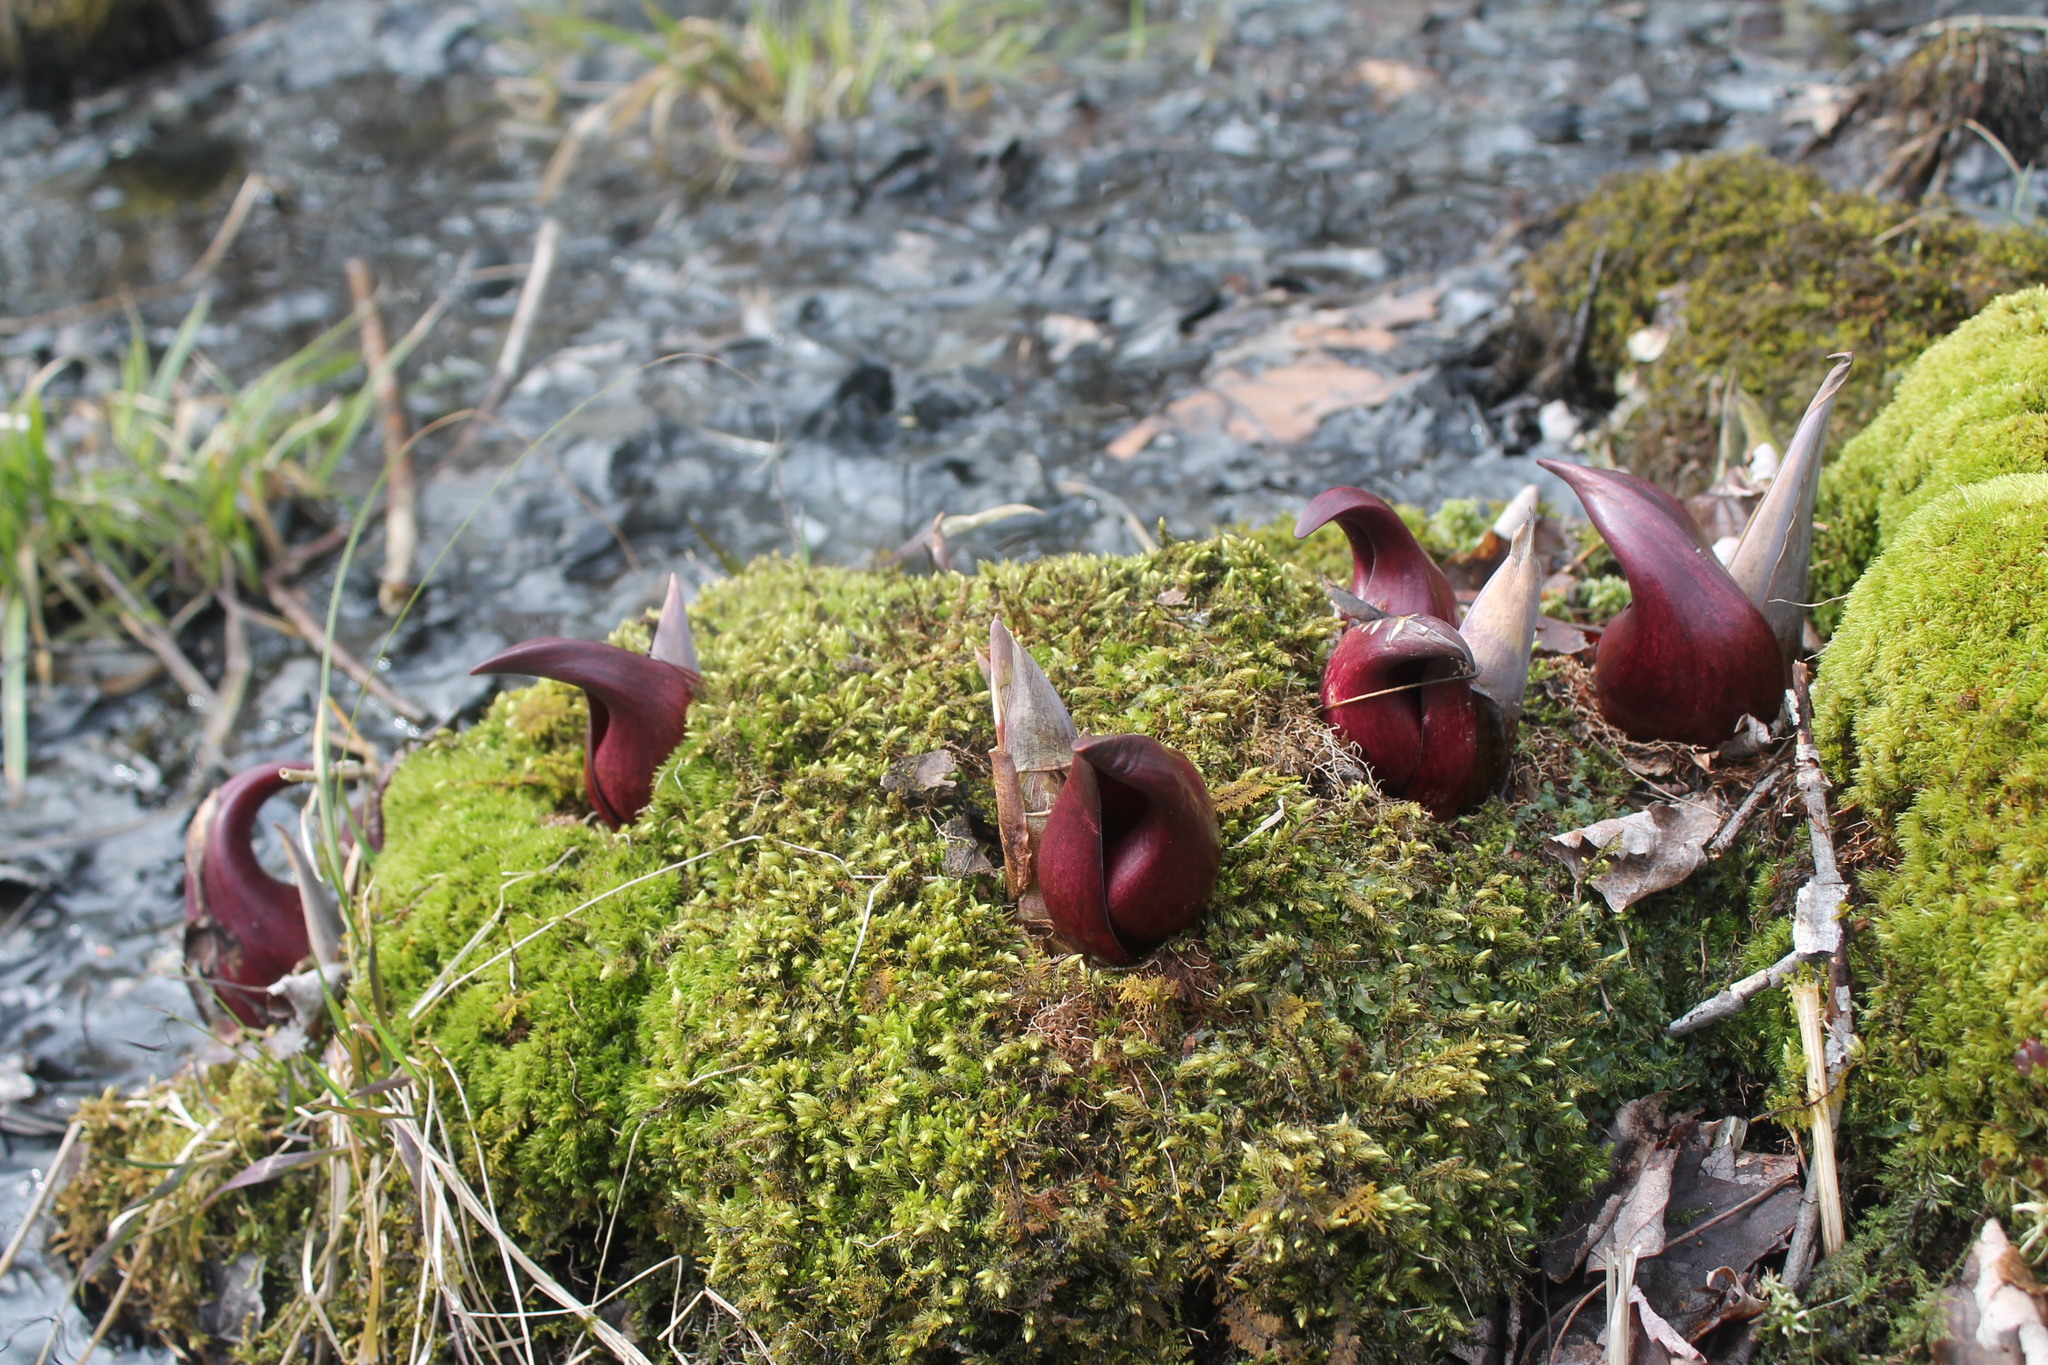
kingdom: Plantae
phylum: Tracheophyta
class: Liliopsida
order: Alismatales
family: Araceae
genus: Symplocarpus
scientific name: Symplocarpus foetidus
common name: Eastern skunk cabbage
